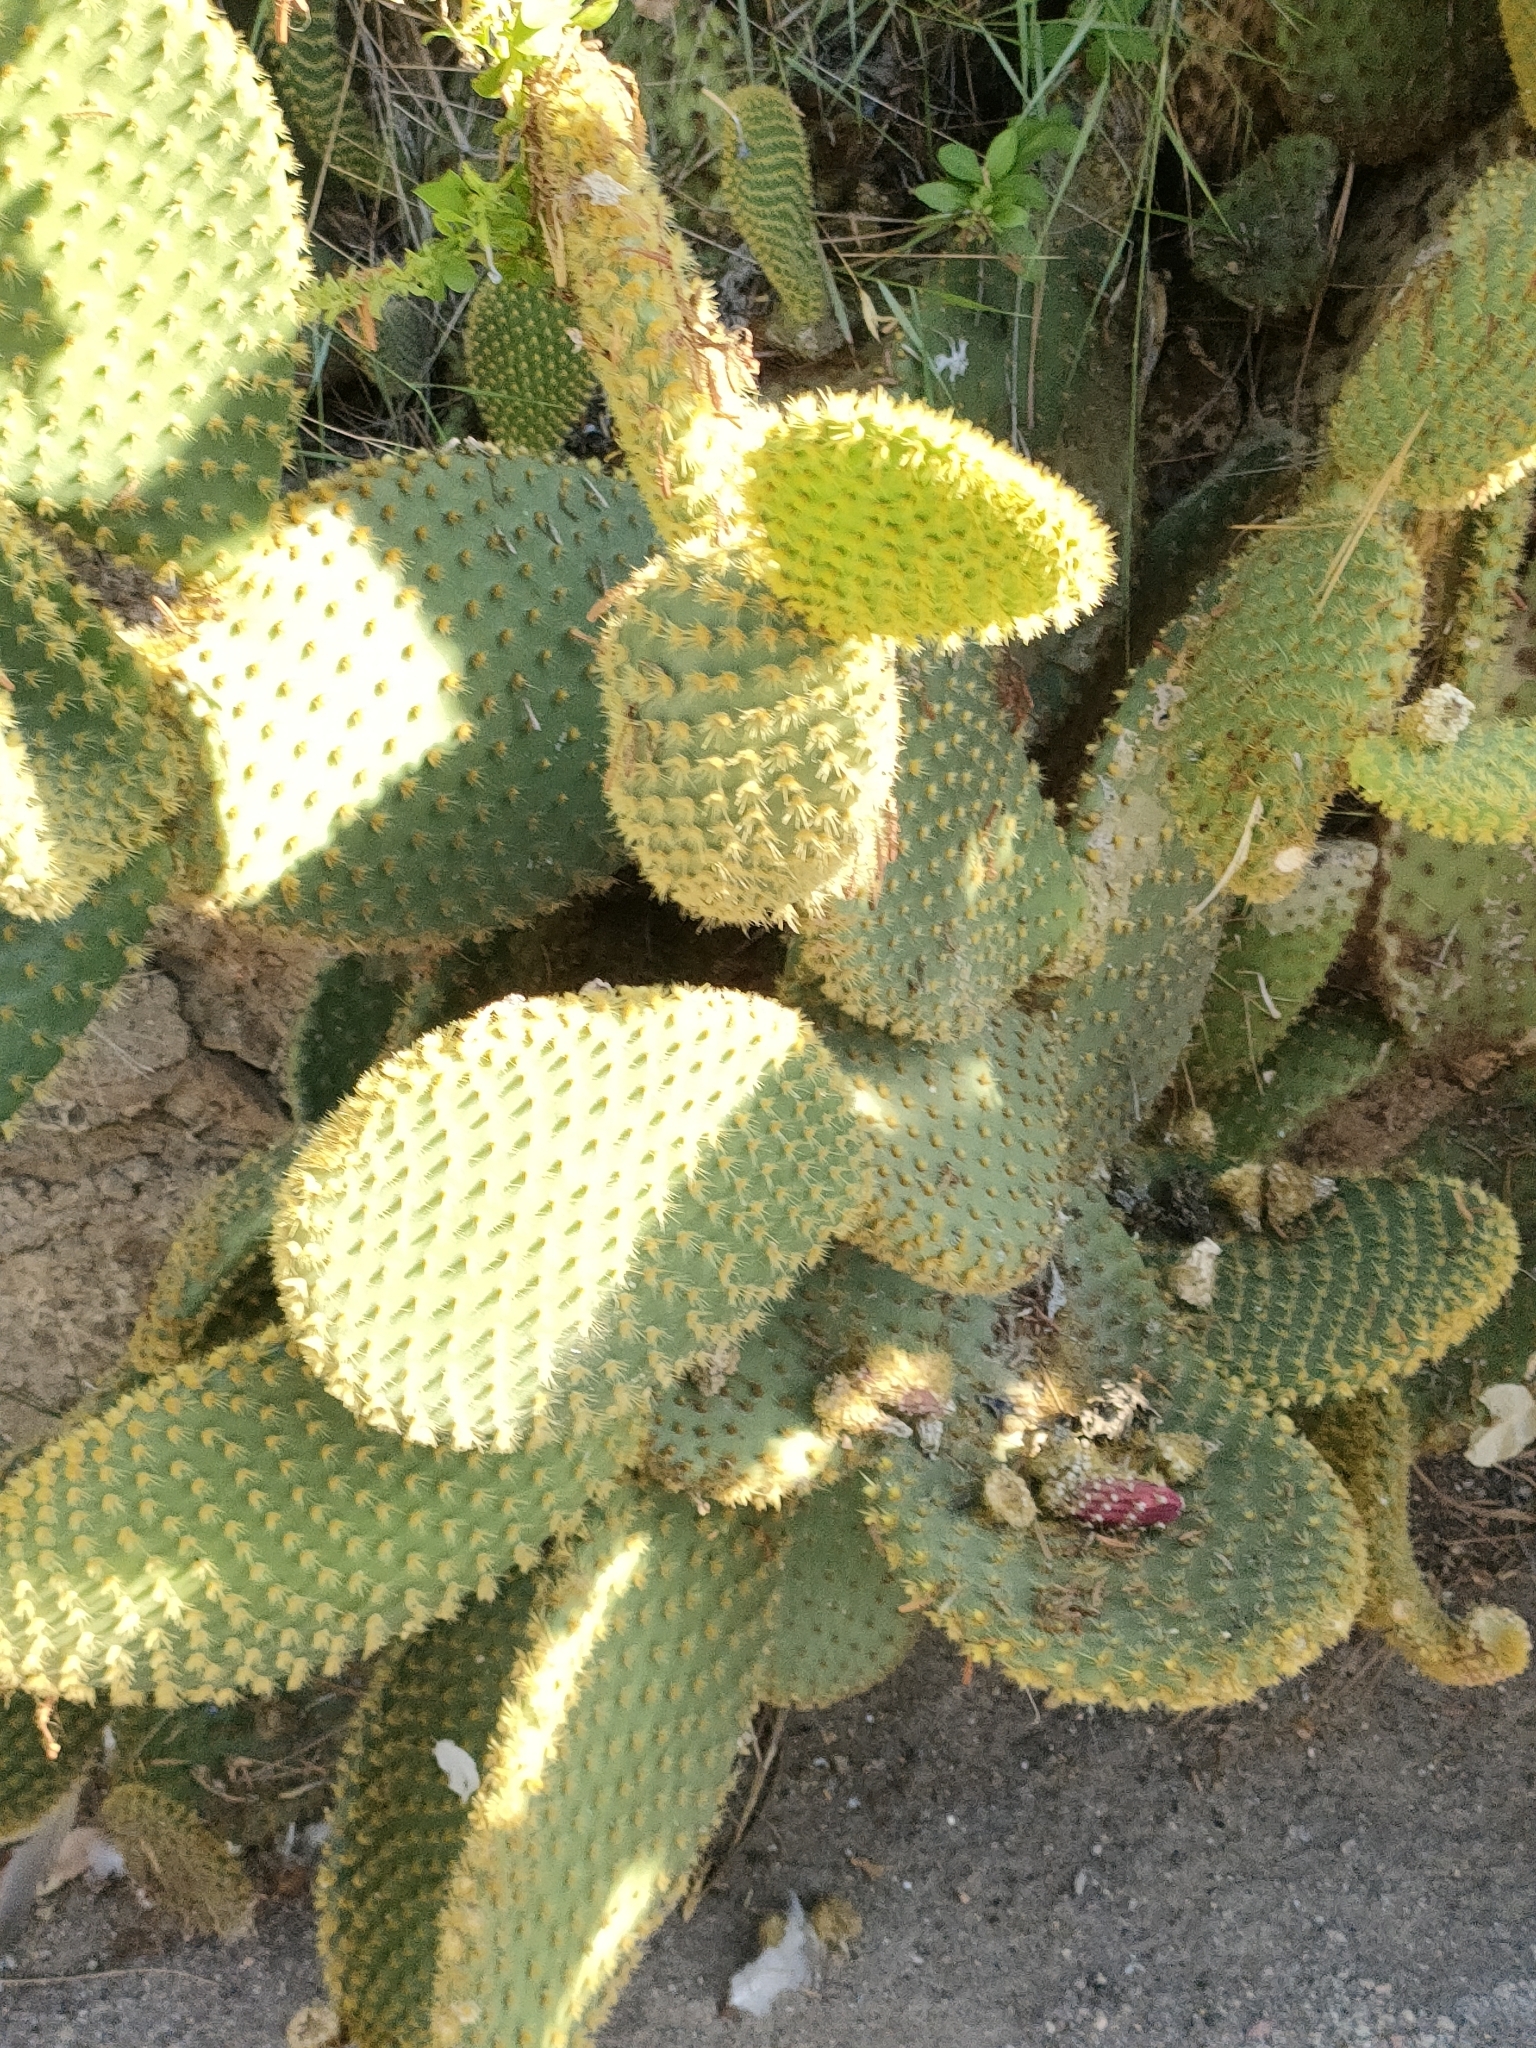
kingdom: Plantae
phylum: Tracheophyta
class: Magnoliopsida
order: Caryophyllales
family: Cactaceae
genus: Opuntia
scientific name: Opuntia microdasys
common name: Angel's-wings
